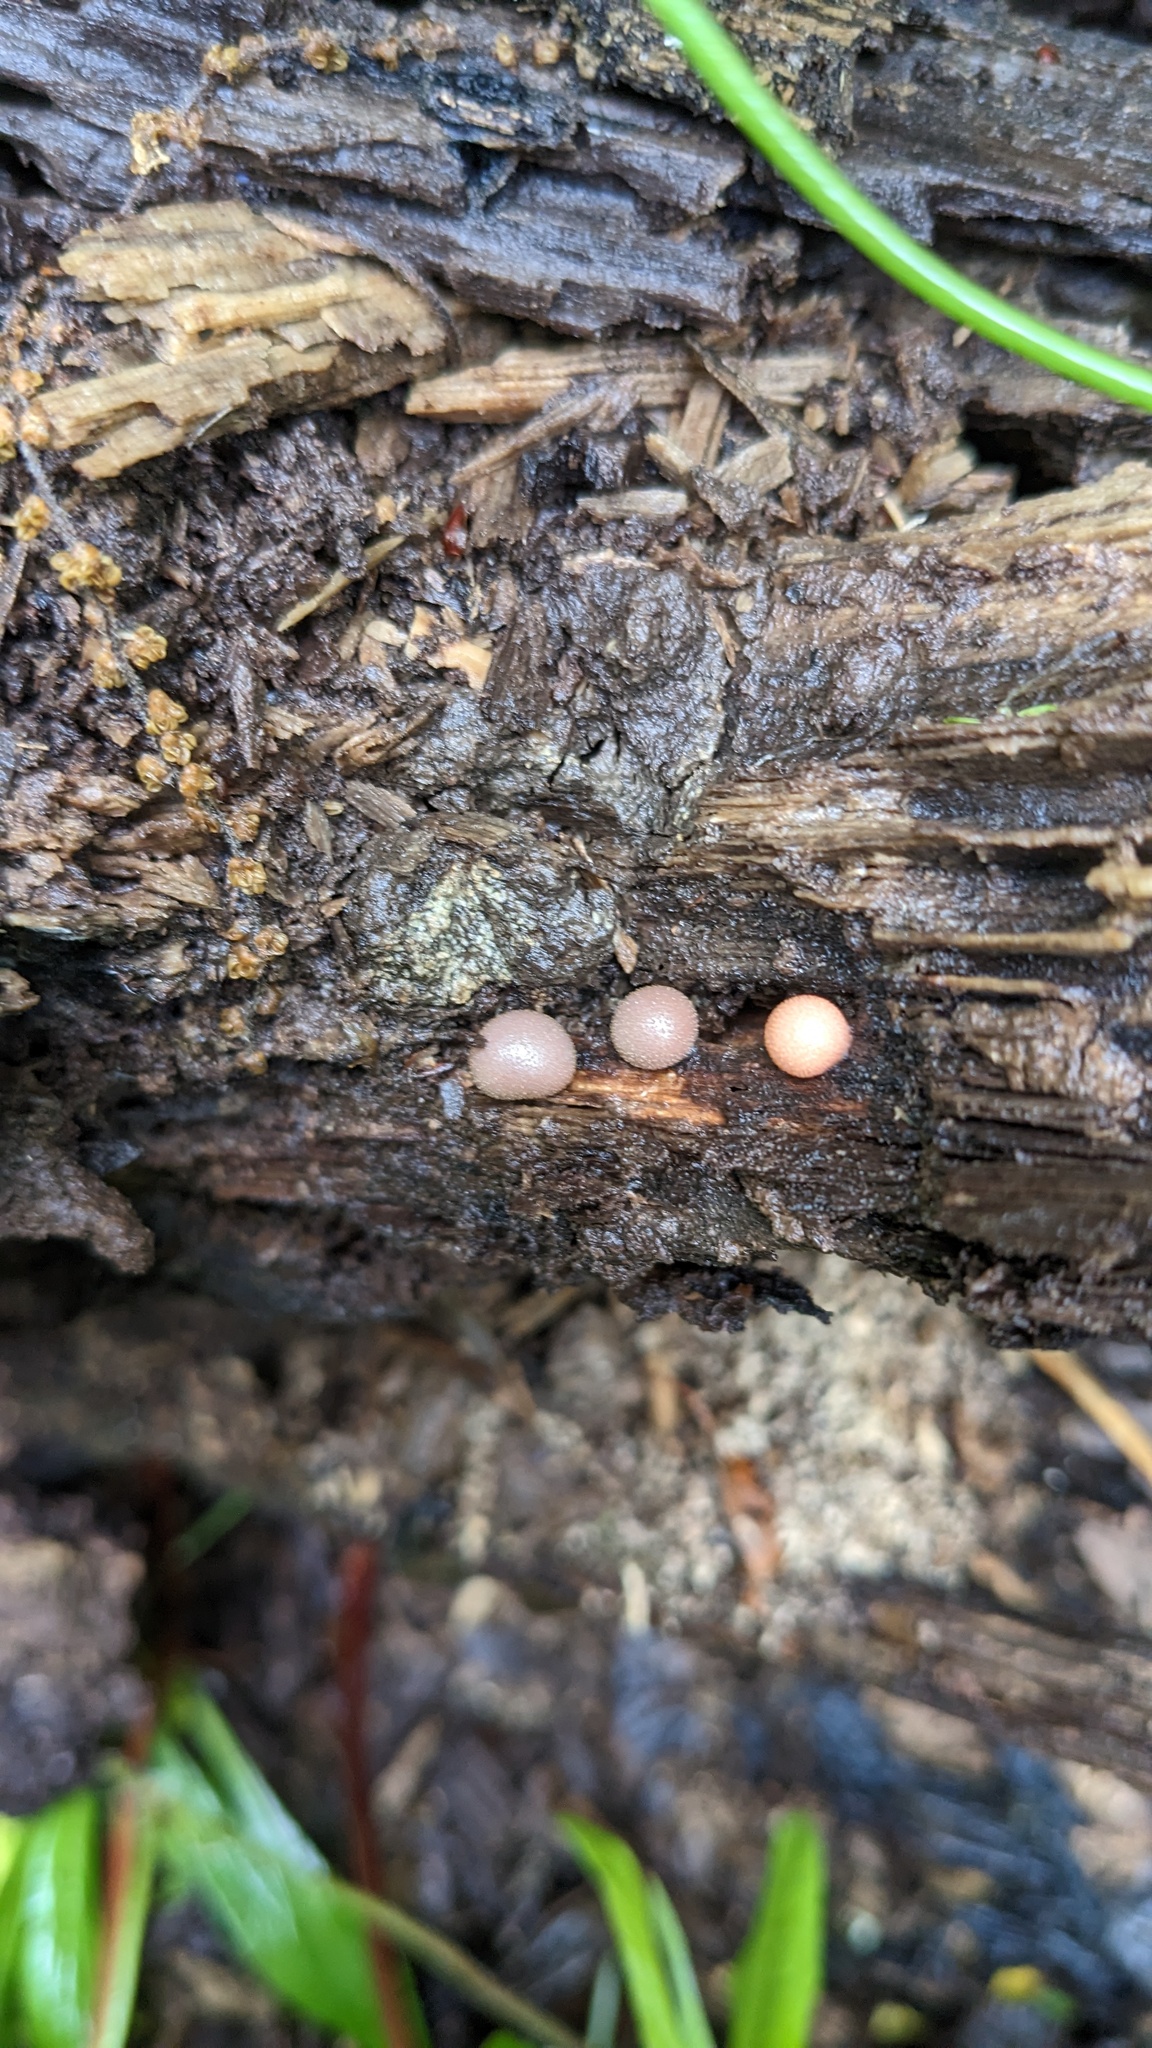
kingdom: Protozoa
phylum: Mycetozoa
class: Myxomycetes
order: Cribrariales
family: Tubiferaceae
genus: Lycogala
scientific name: Lycogala epidendrum
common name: Wolf's milk
